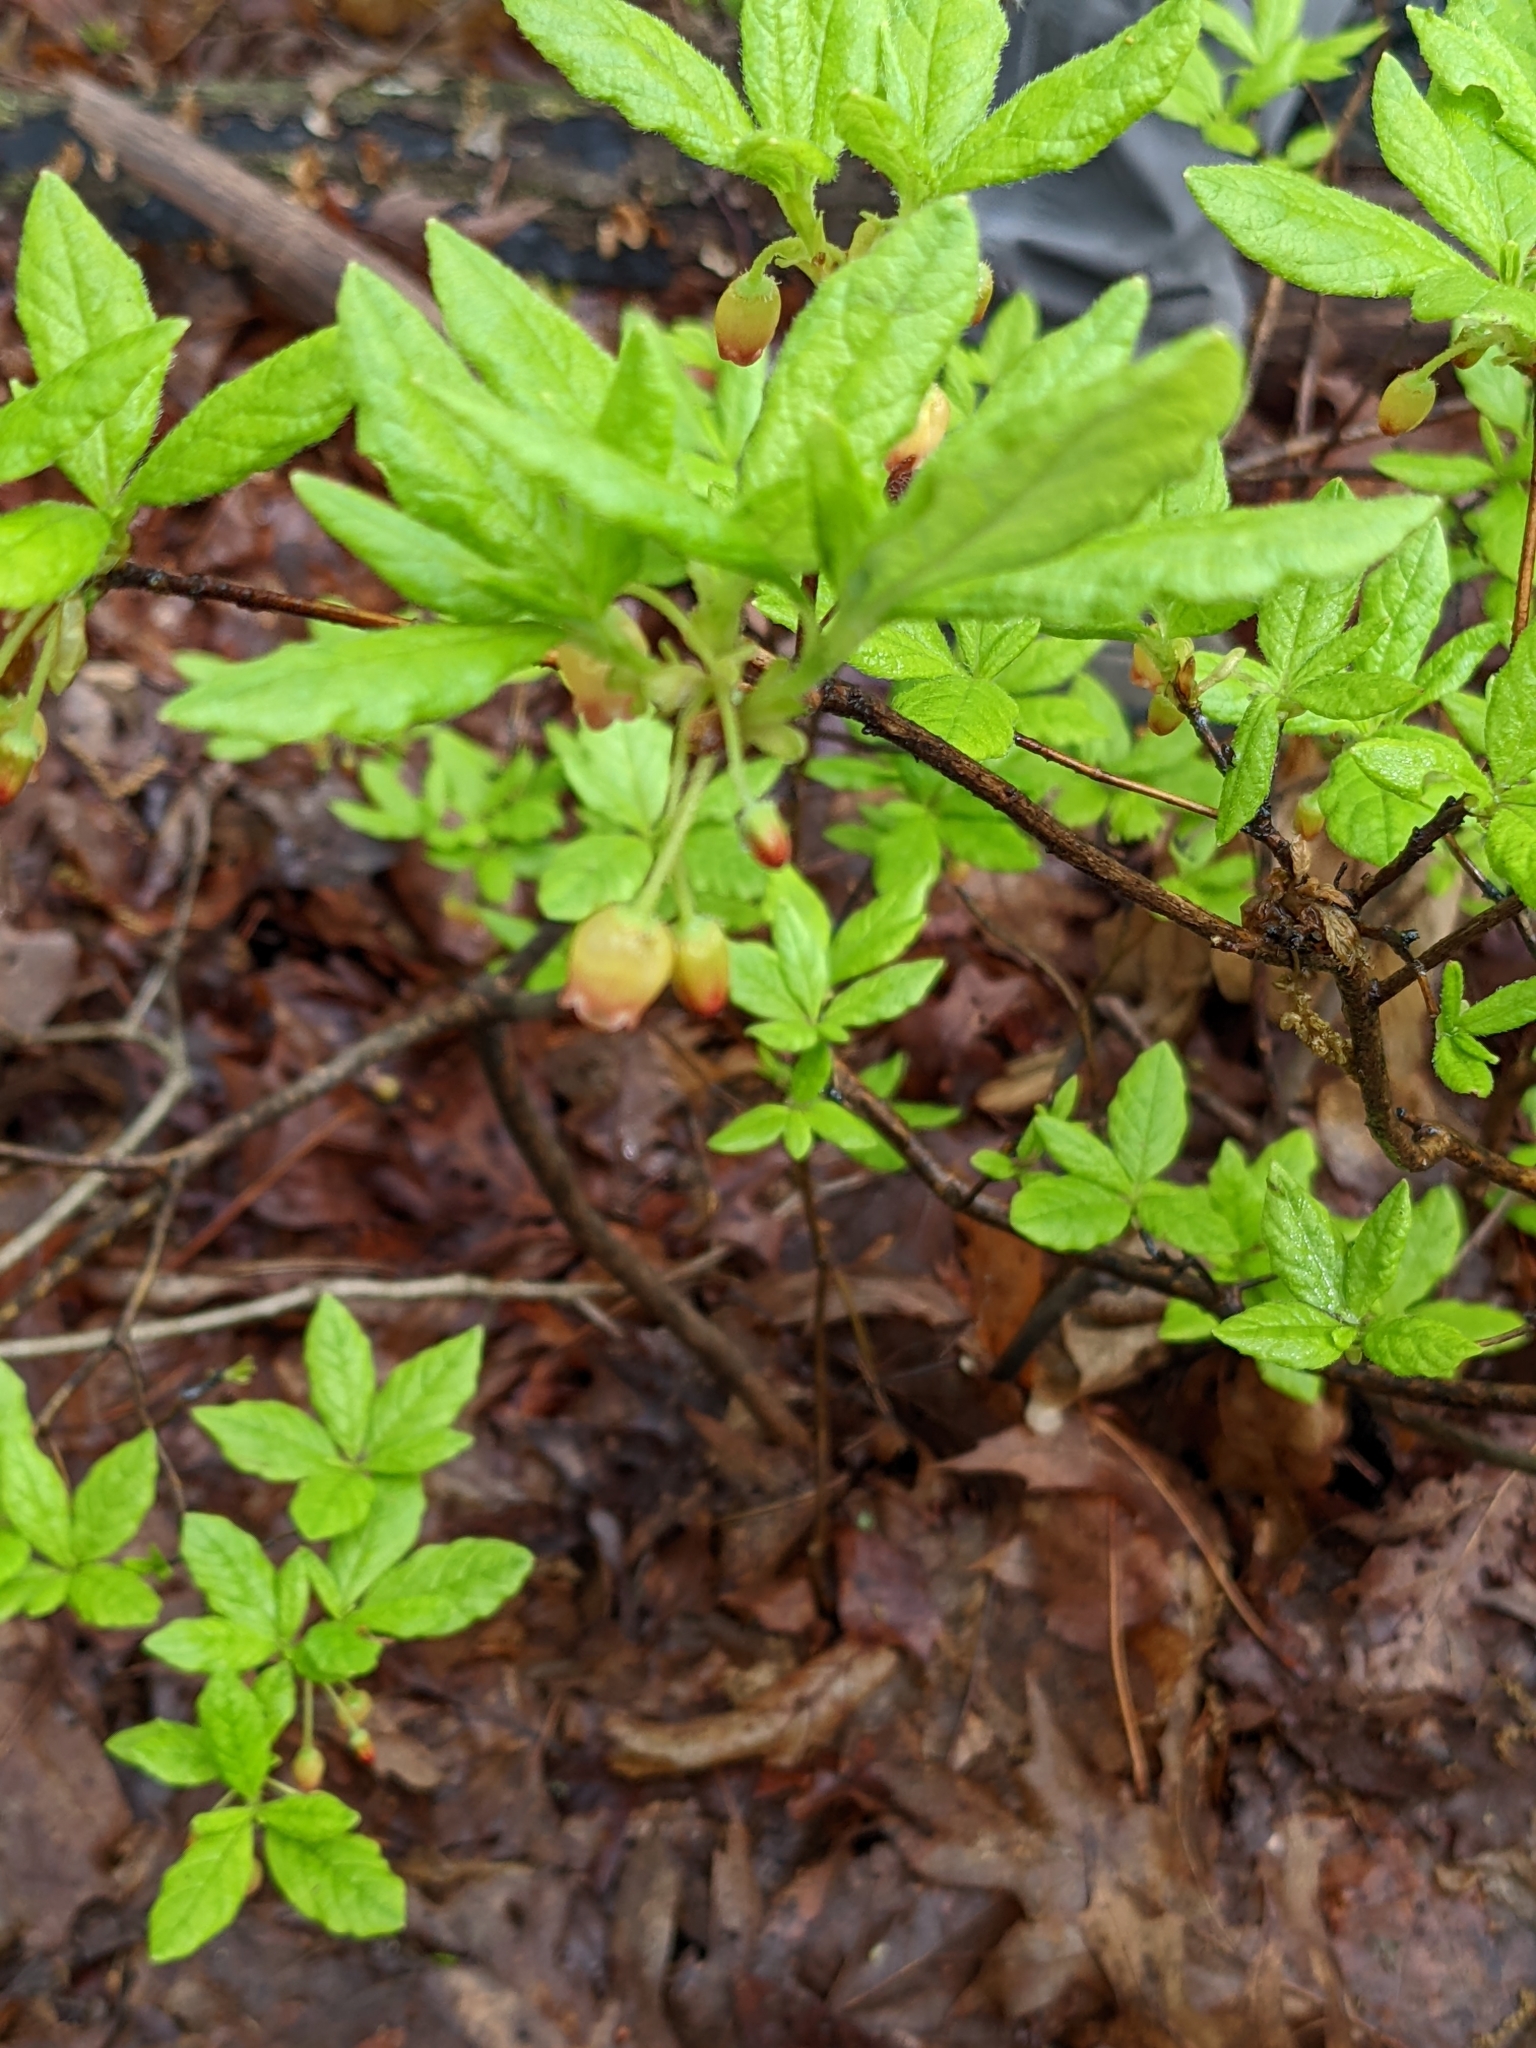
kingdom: Plantae
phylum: Tracheophyta
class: Magnoliopsida
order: Ericales
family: Ericaceae
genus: Rhododendron
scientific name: Rhododendron pilosum
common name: Hairy minniebush
